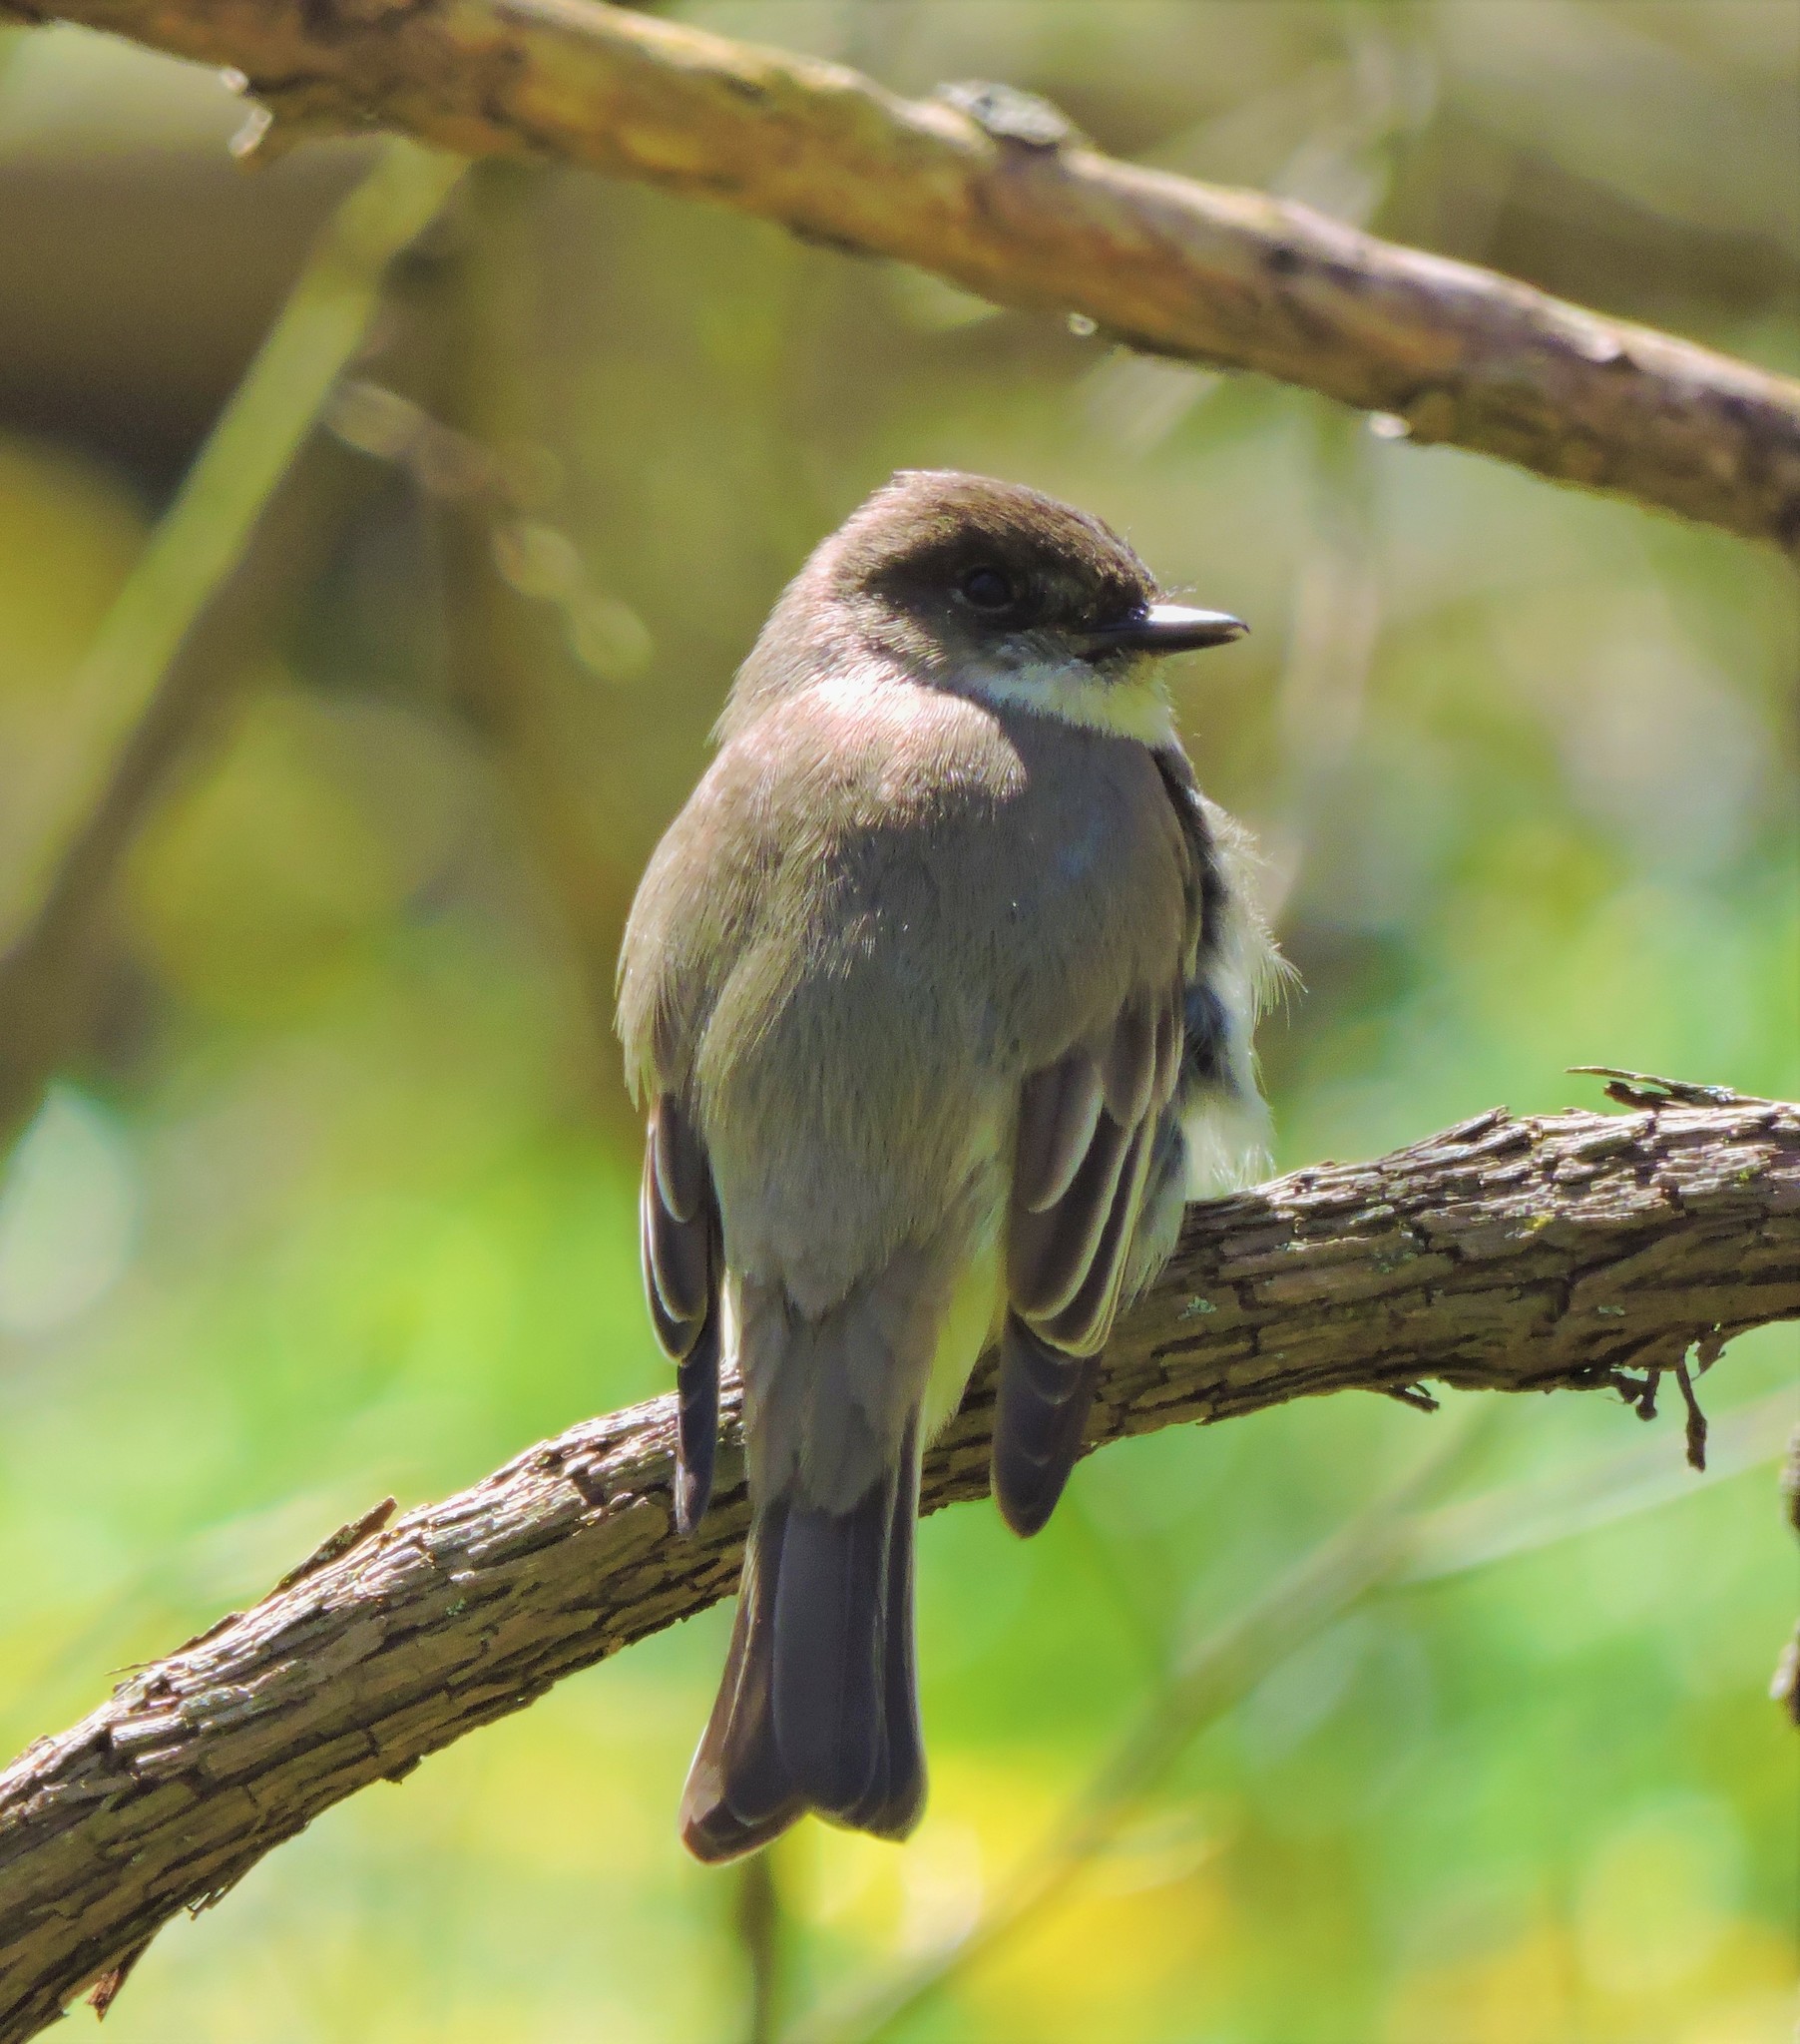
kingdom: Animalia
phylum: Chordata
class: Aves
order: Passeriformes
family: Tyrannidae
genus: Sayornis
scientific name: Sayornis phoebe
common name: Eastern phoebe
